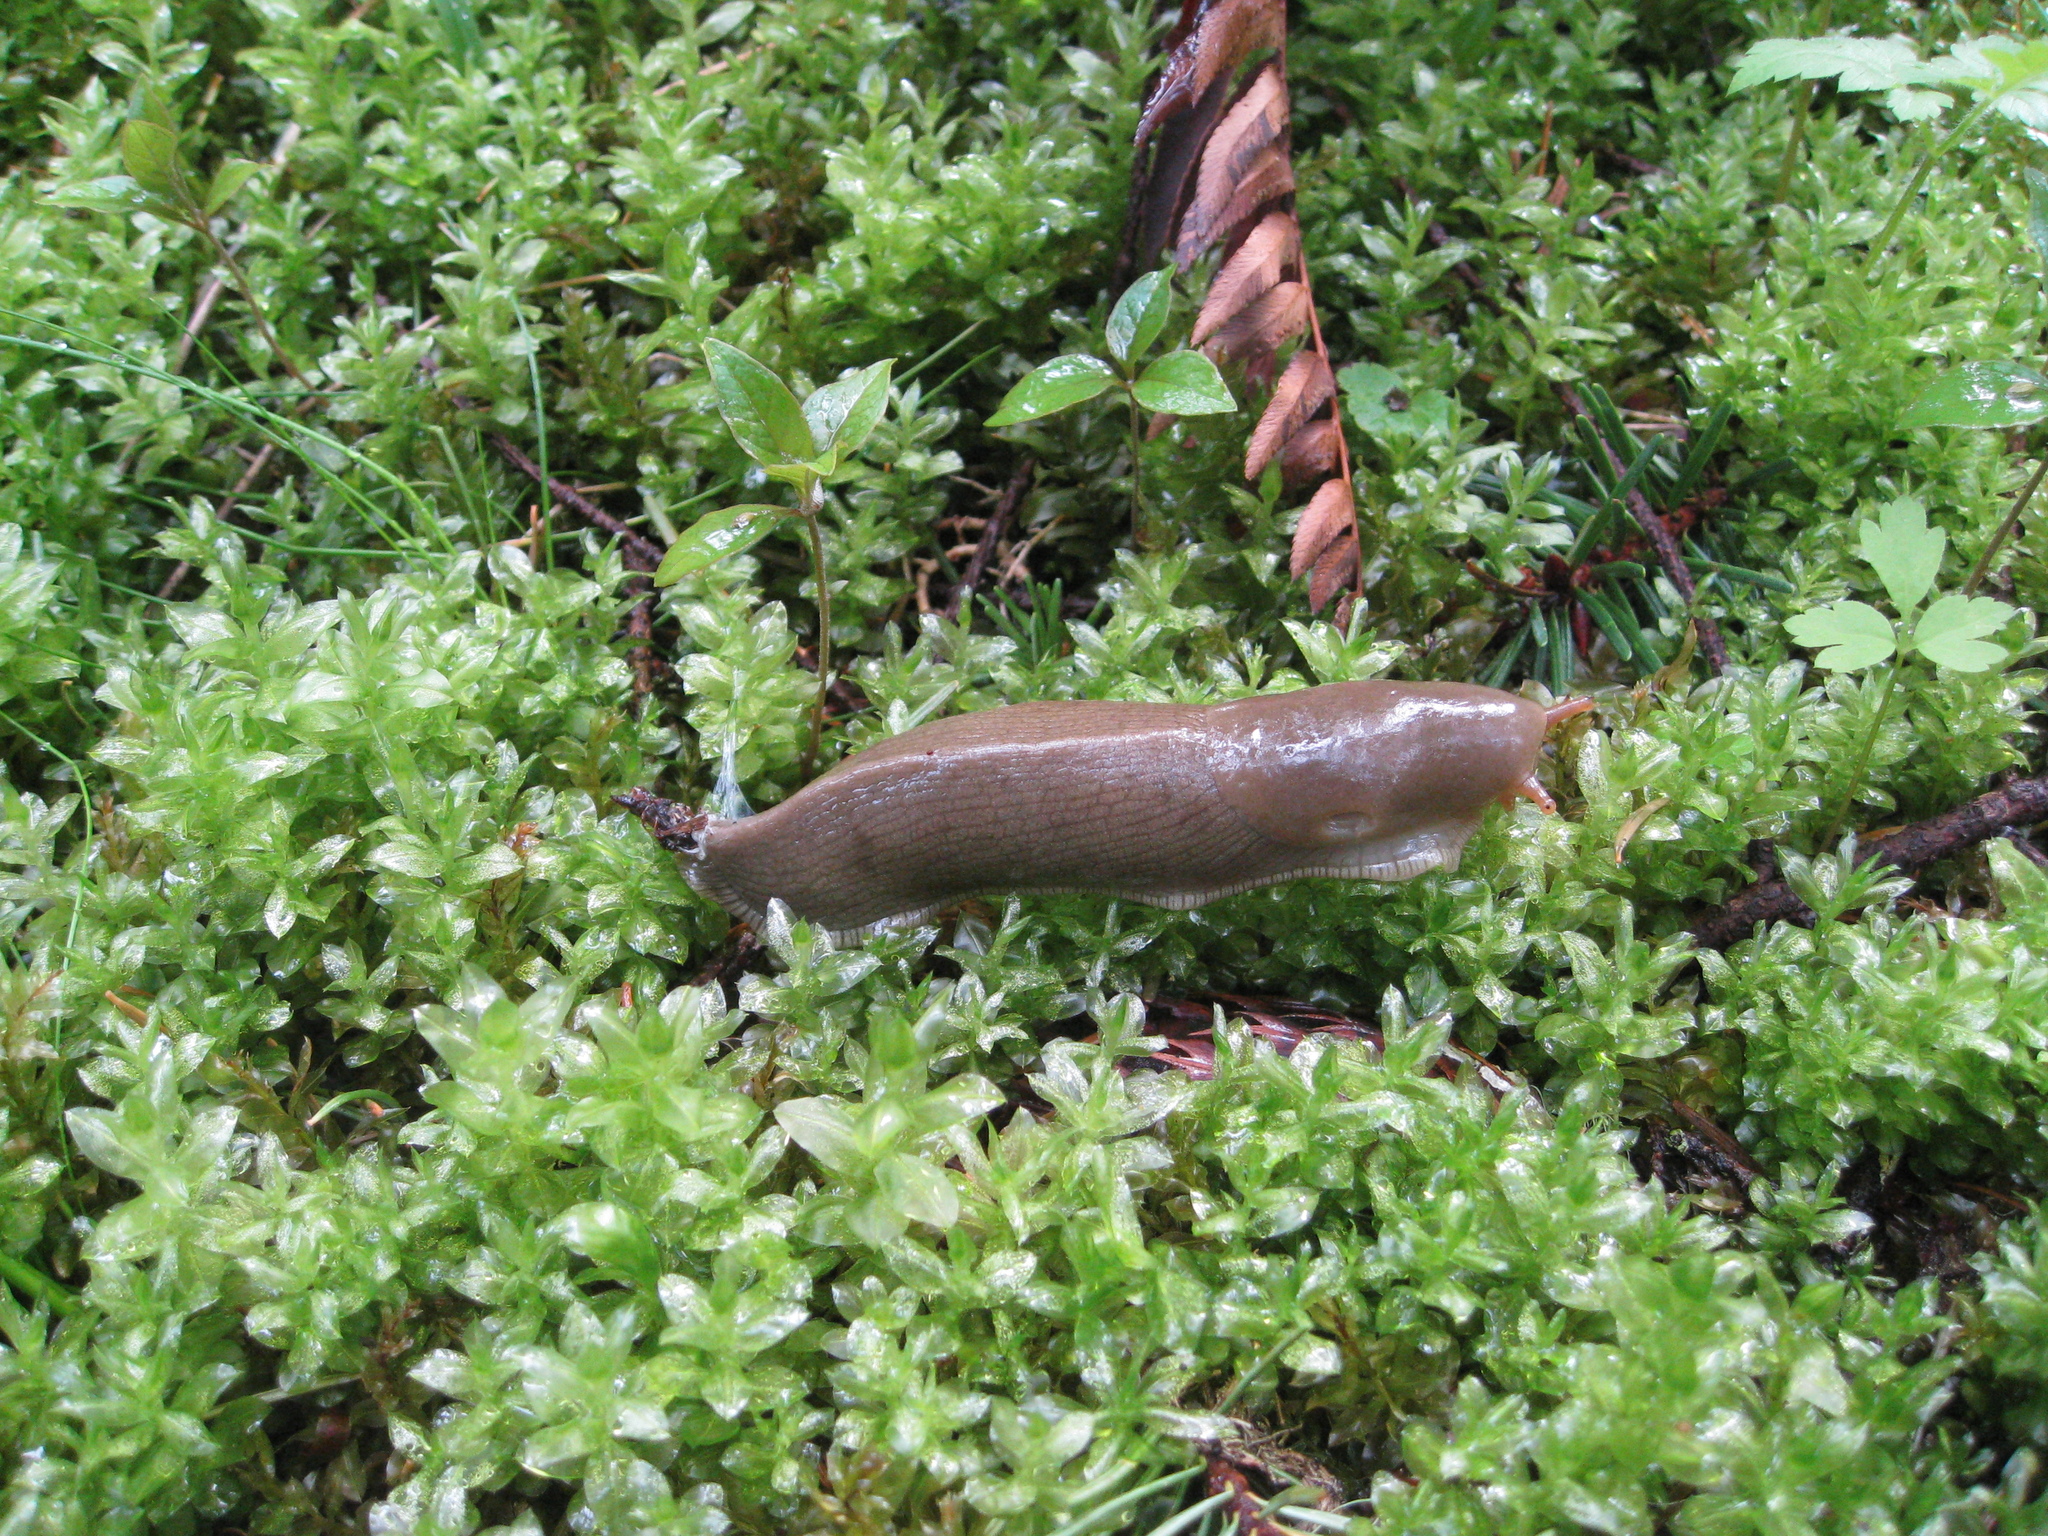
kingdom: Animalia
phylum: Mollusca
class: Gastropoda
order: Stylommatophora
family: Ariolimacidae
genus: Ariolimax
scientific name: Ariolimax columbianus
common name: Pacific banana slug
